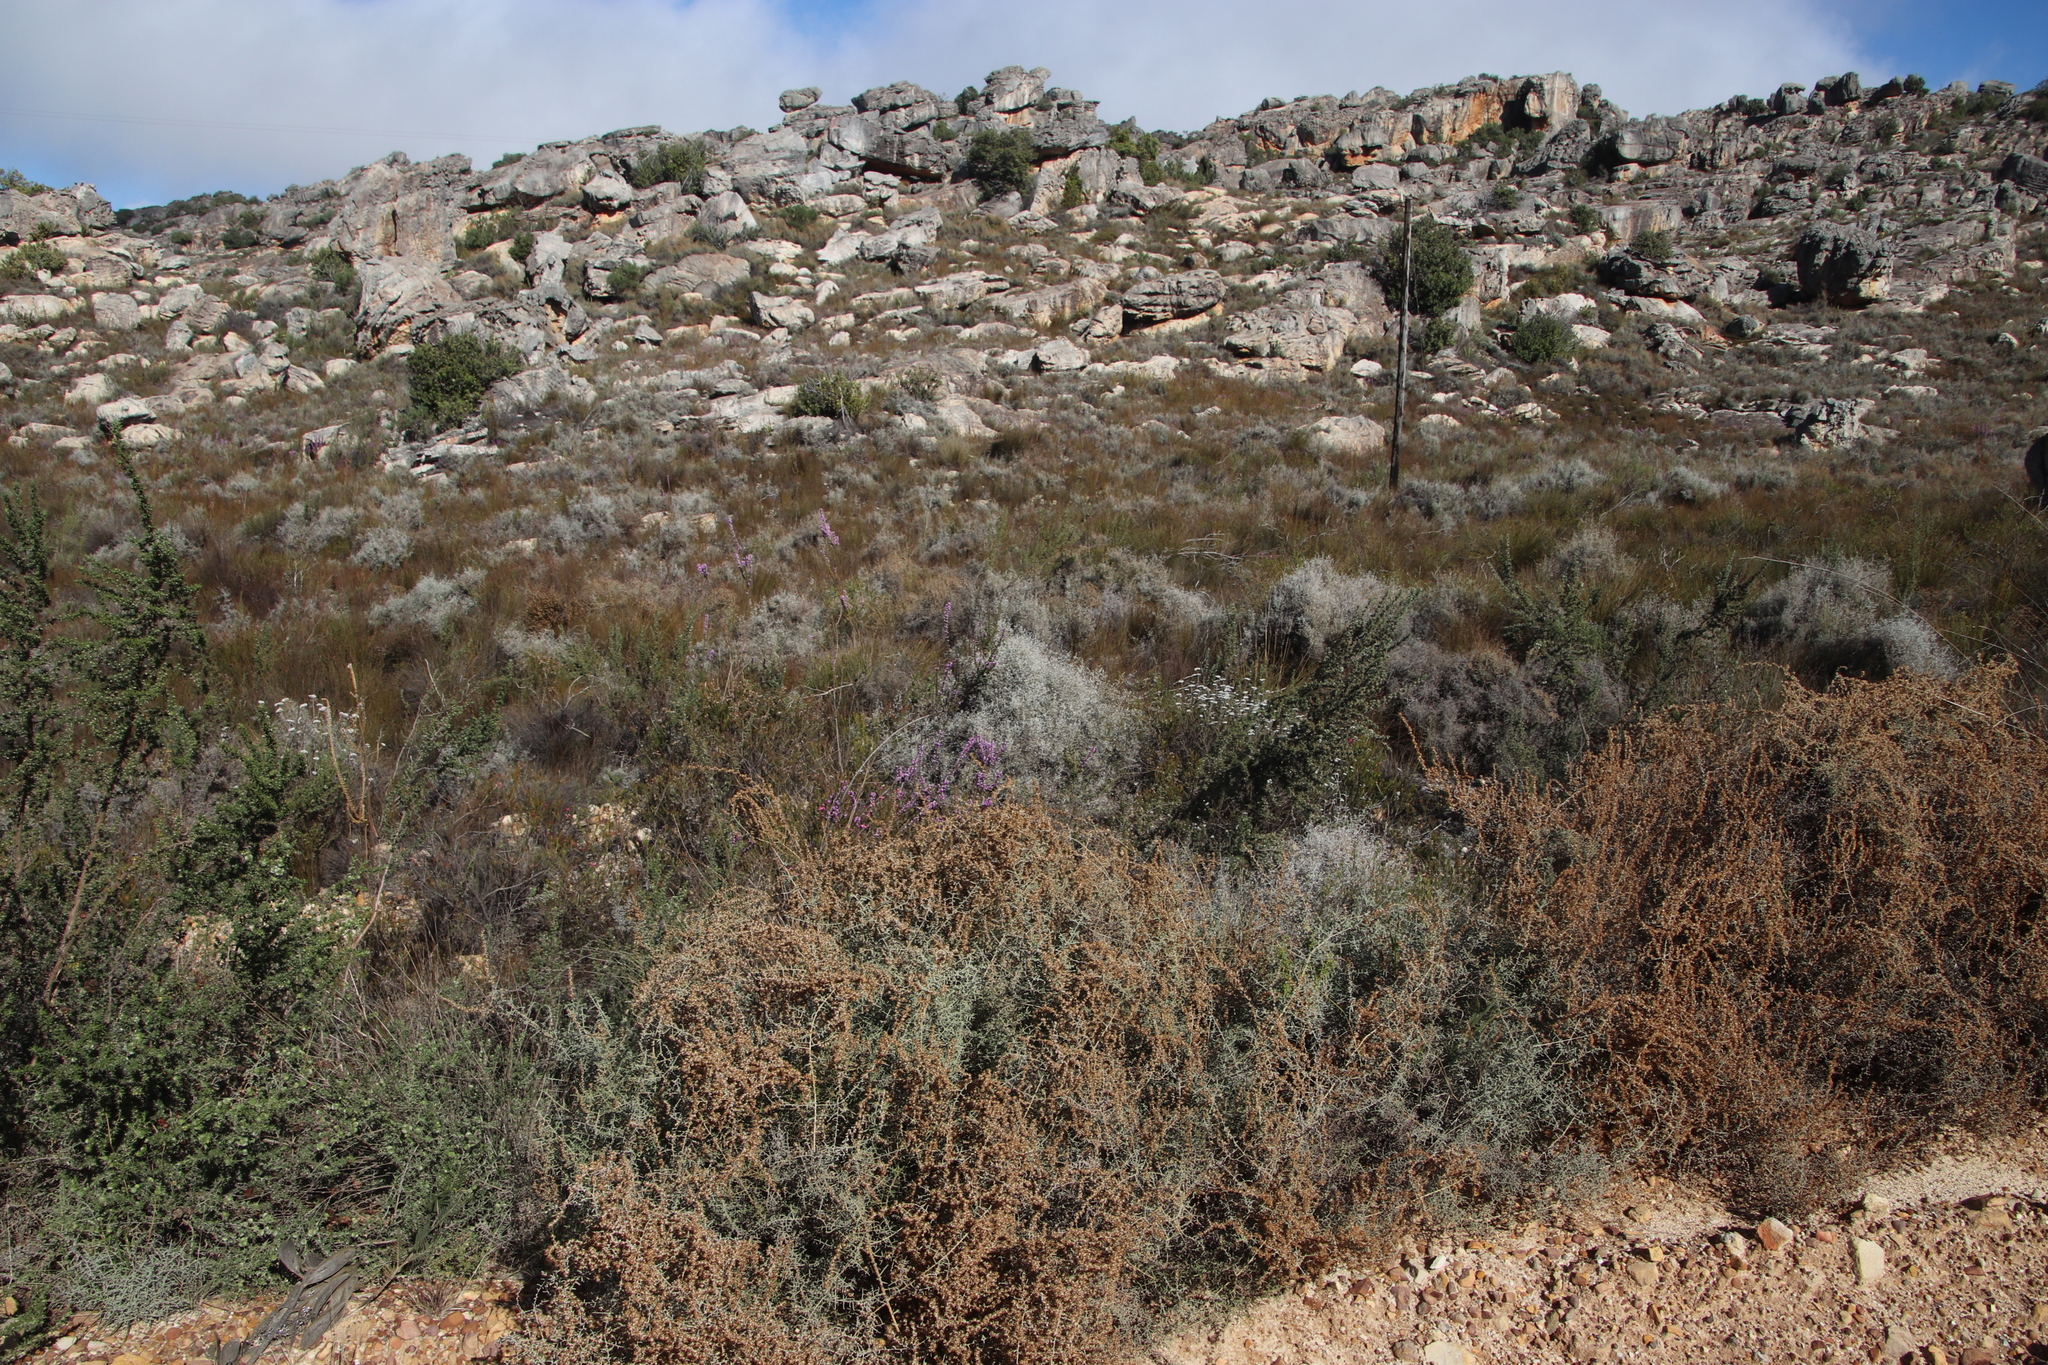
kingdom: Plantae
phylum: Tracheophyta
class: Magnoliopsida
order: Asterales
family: Asteraceae
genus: Seriphium
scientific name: Seriphium plumosum
